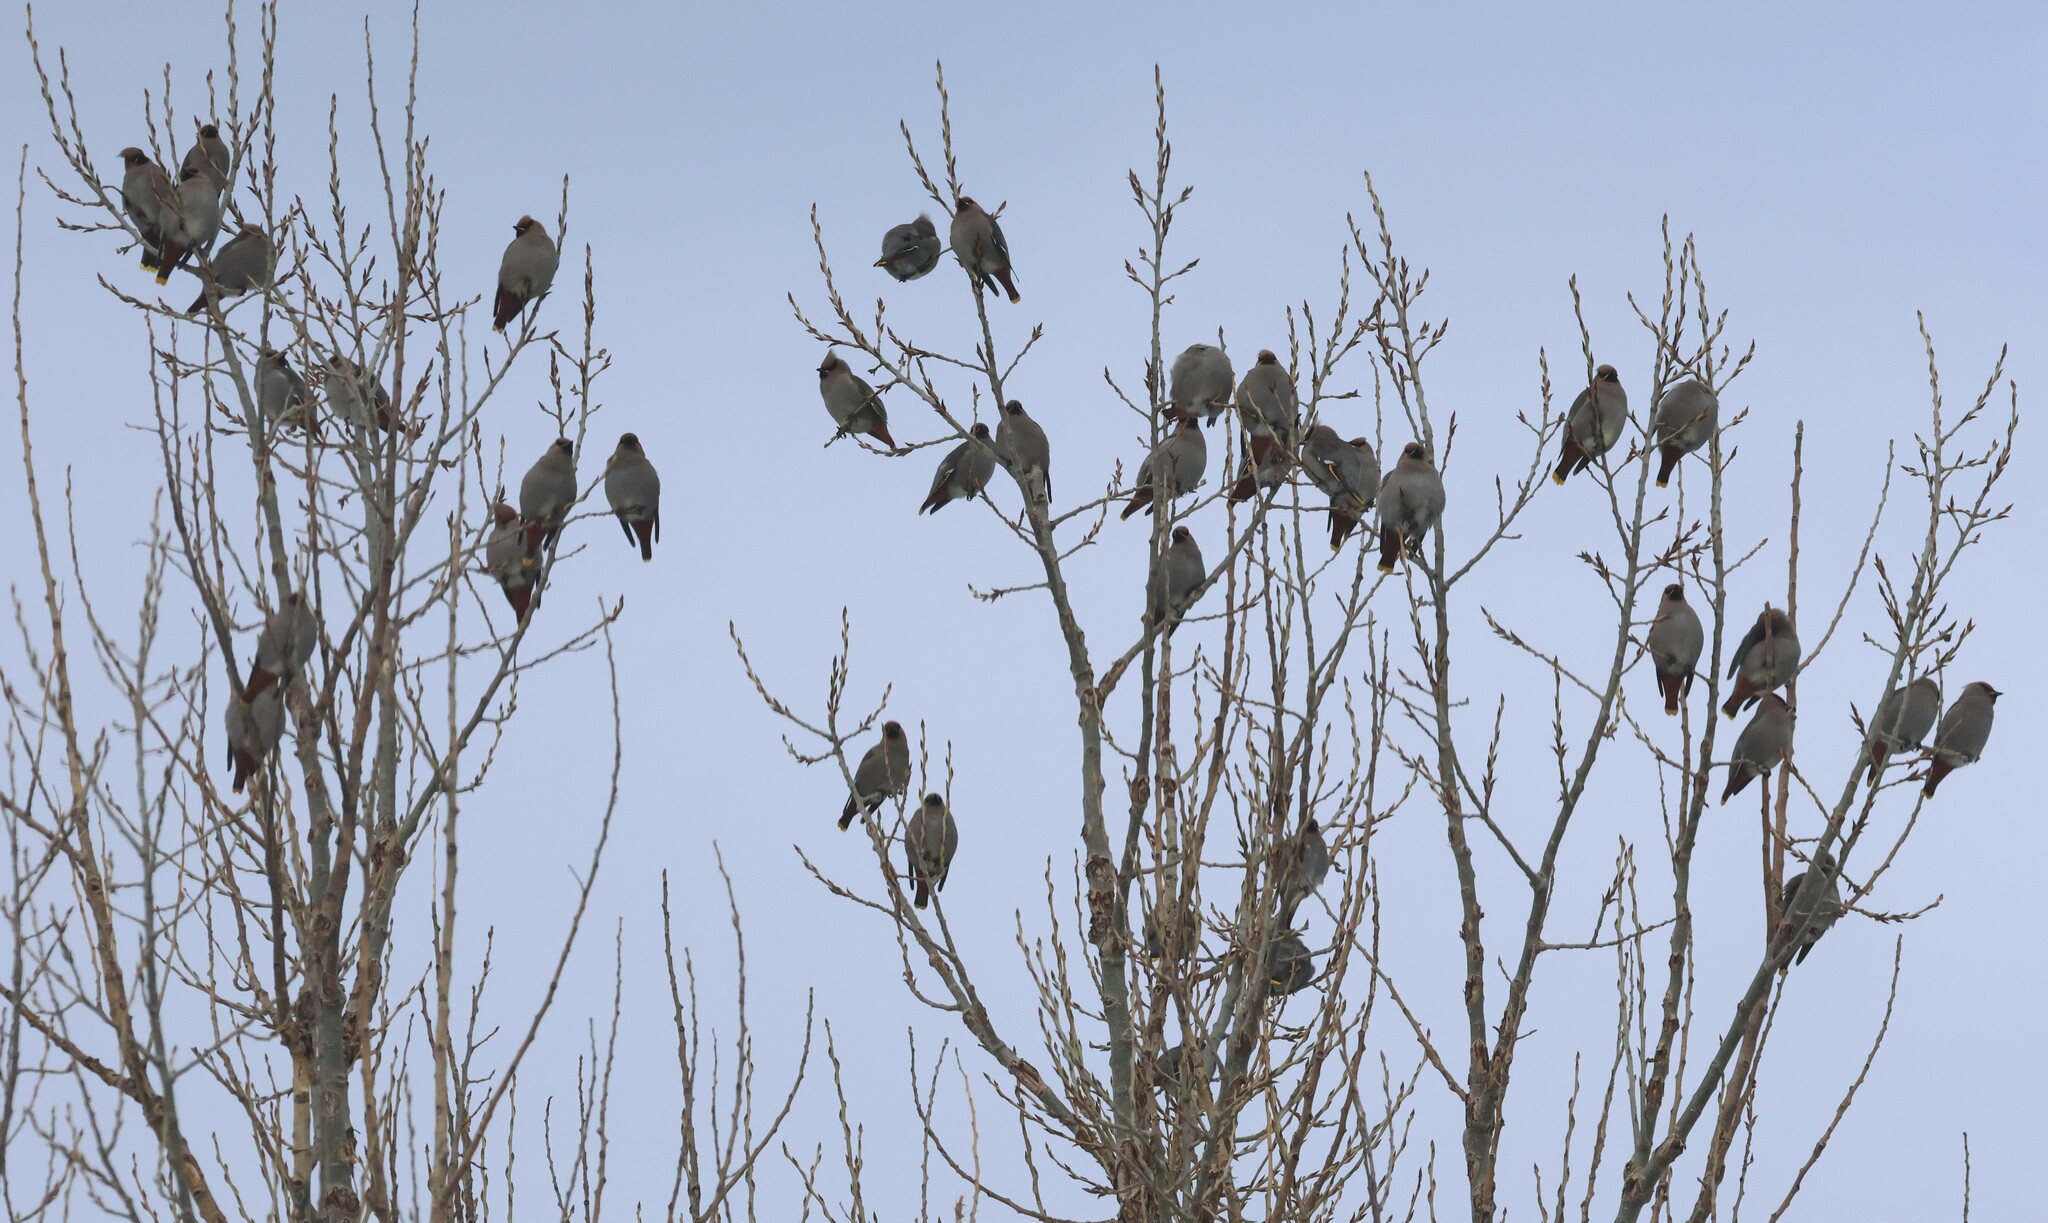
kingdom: Animalia
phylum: Chordata
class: Aves
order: Passeriformes
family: Bombycillidae
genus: Bombycilla
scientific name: Bombycilla garrulus
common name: Bohemian waxwing
